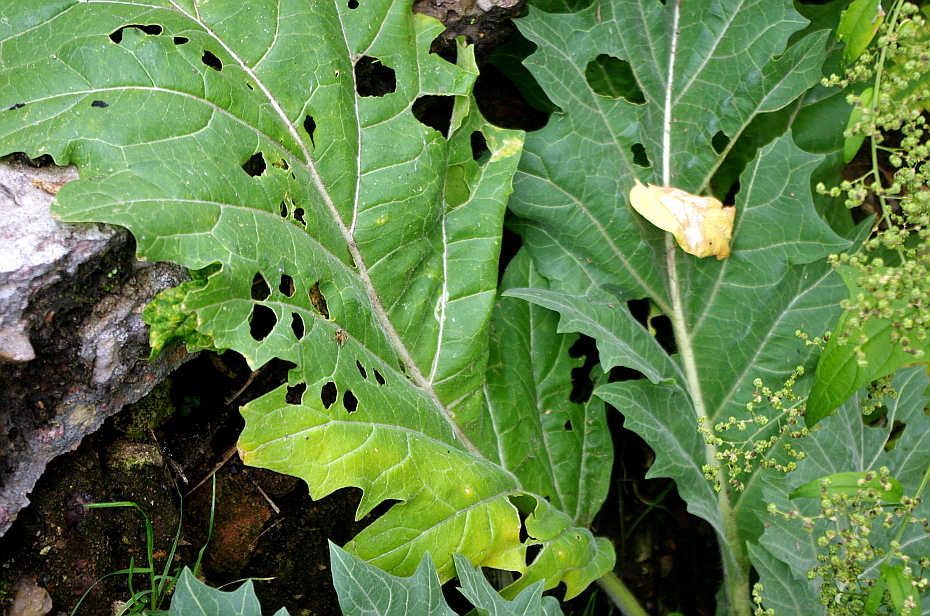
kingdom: Plantae
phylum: Tracheophyta
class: Magnoliopsida
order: Solanales
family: Solanaceae
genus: Hyoscyamus
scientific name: Hyoscyamus niger
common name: Henbane
